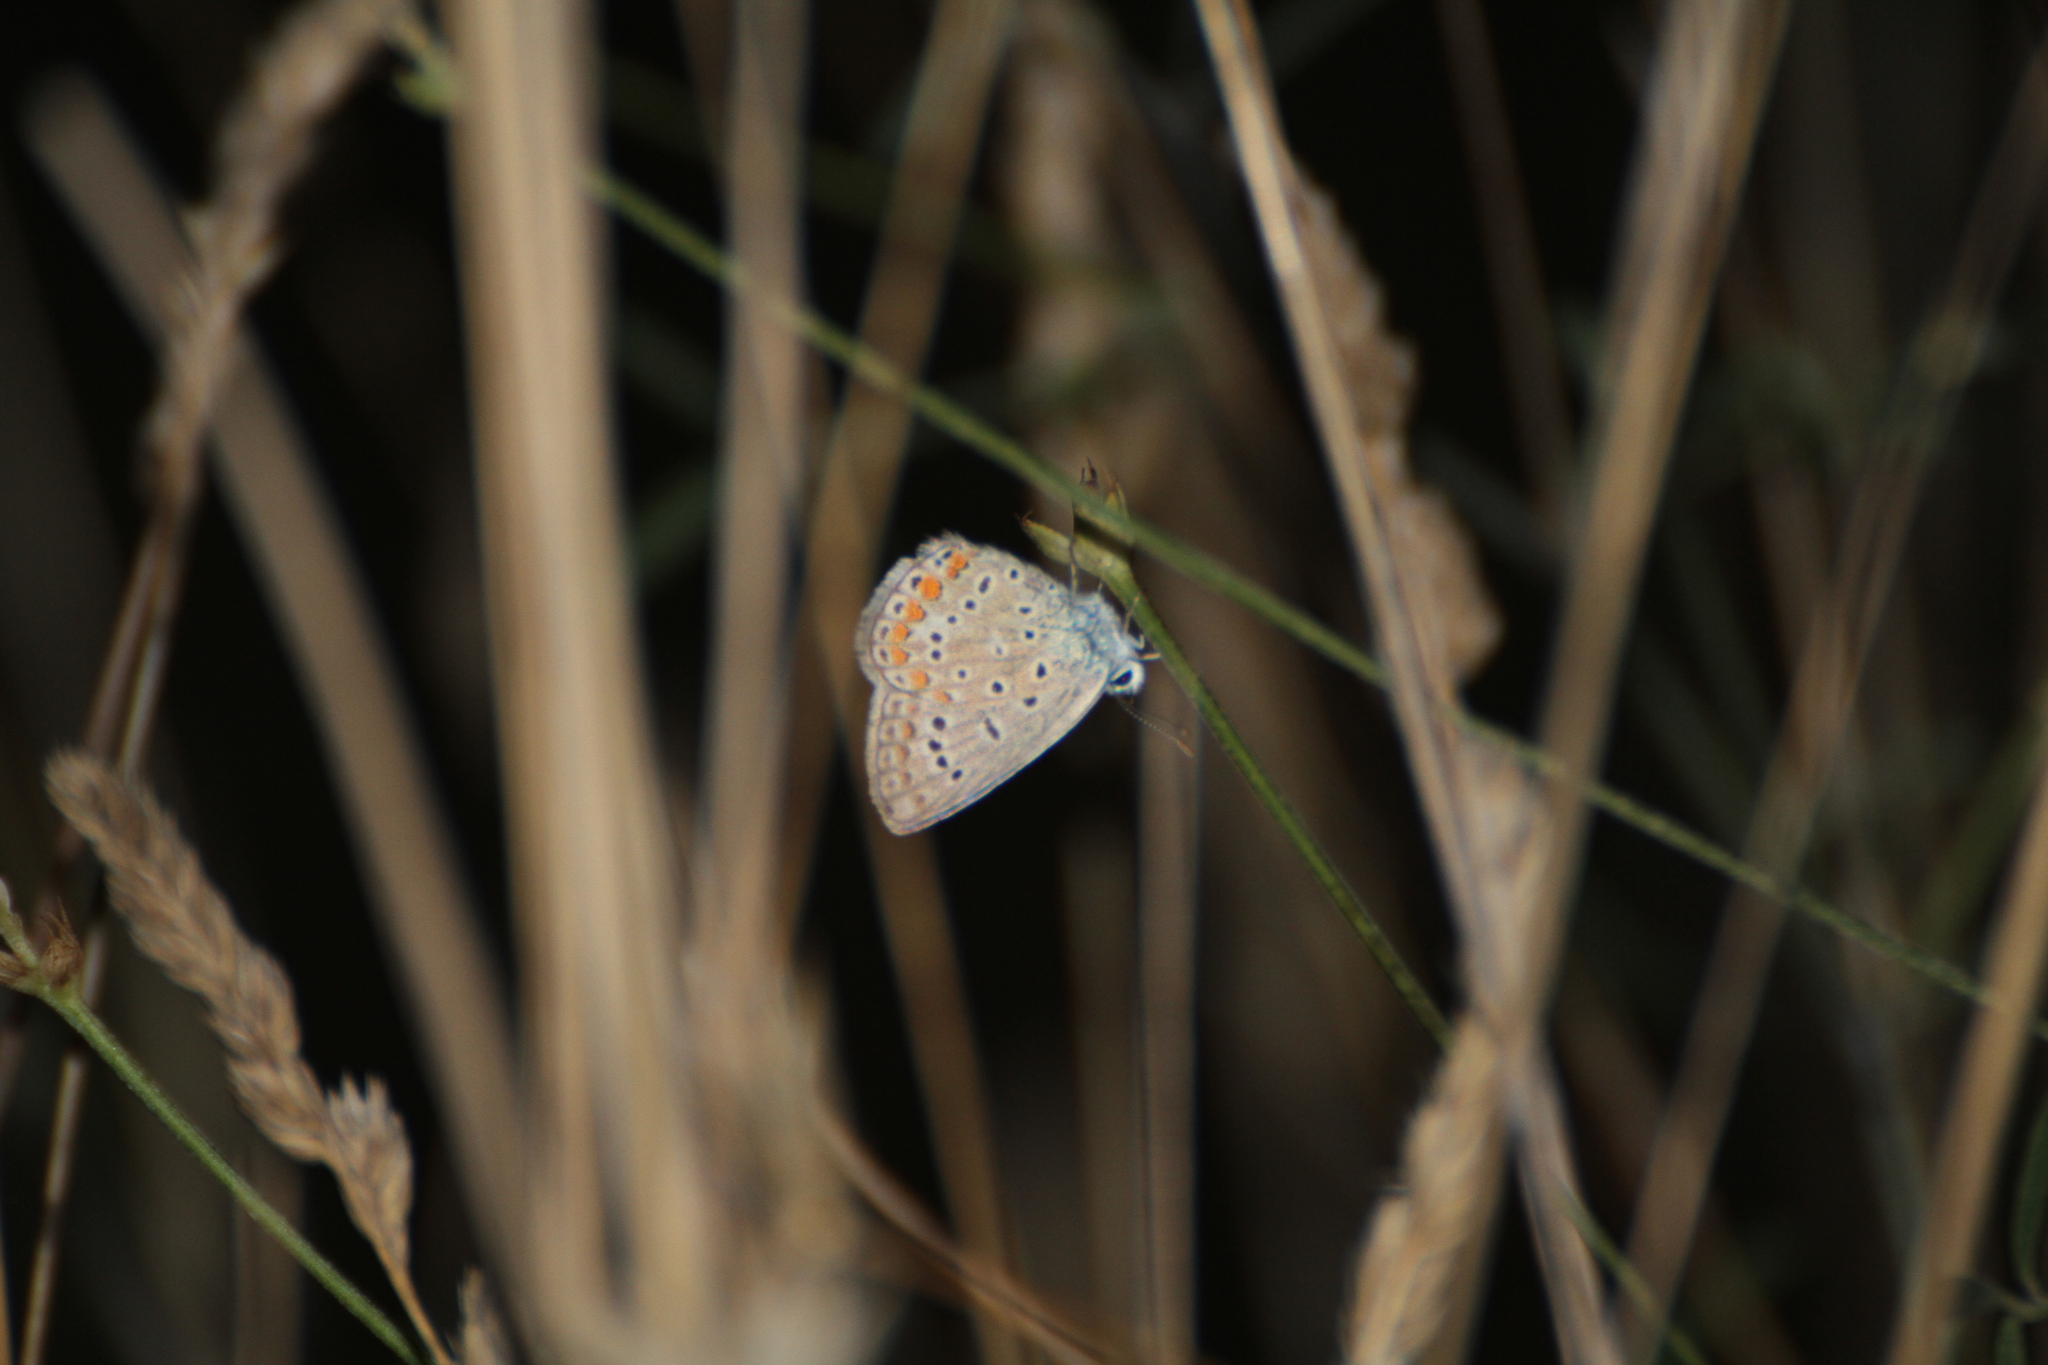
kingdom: Animalia
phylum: Arthropoda
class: Insecta
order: Lepidoptera
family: Lycaenidae
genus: Polyommatus
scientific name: Polyommatus icarus
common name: Common blue
